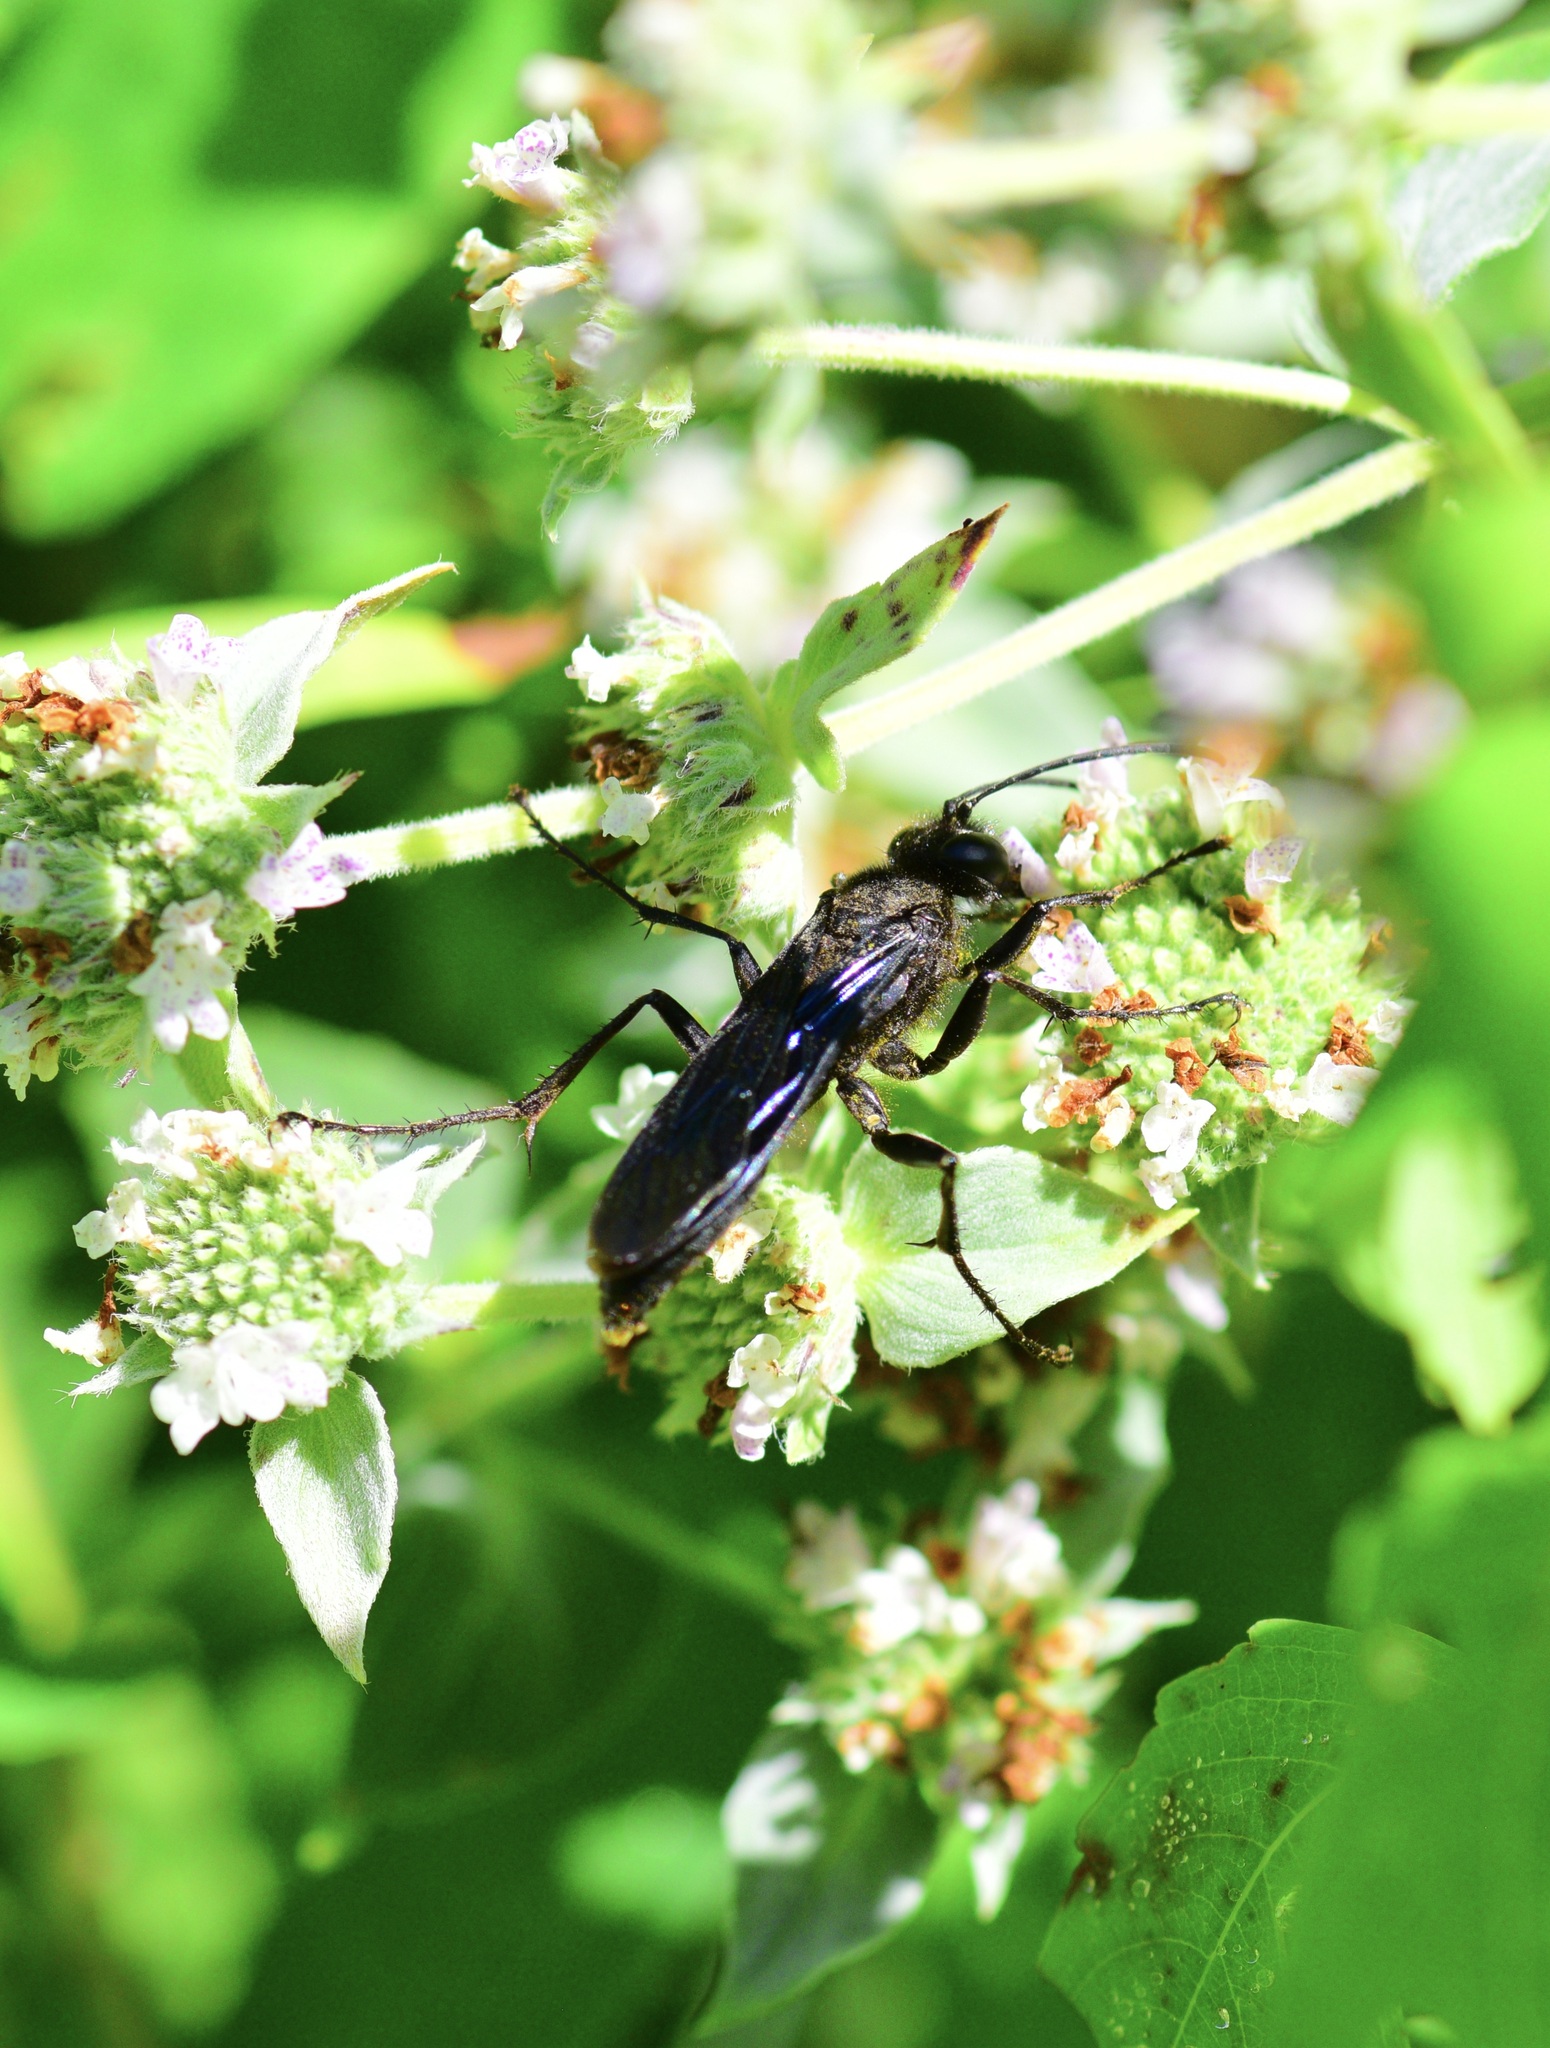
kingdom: Animalia
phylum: Arthropoda
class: Insecta
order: Hymenoptera
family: Sphecidae
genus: Sphex
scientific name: Sphex pensylvanicus
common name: Great black digger wasp
